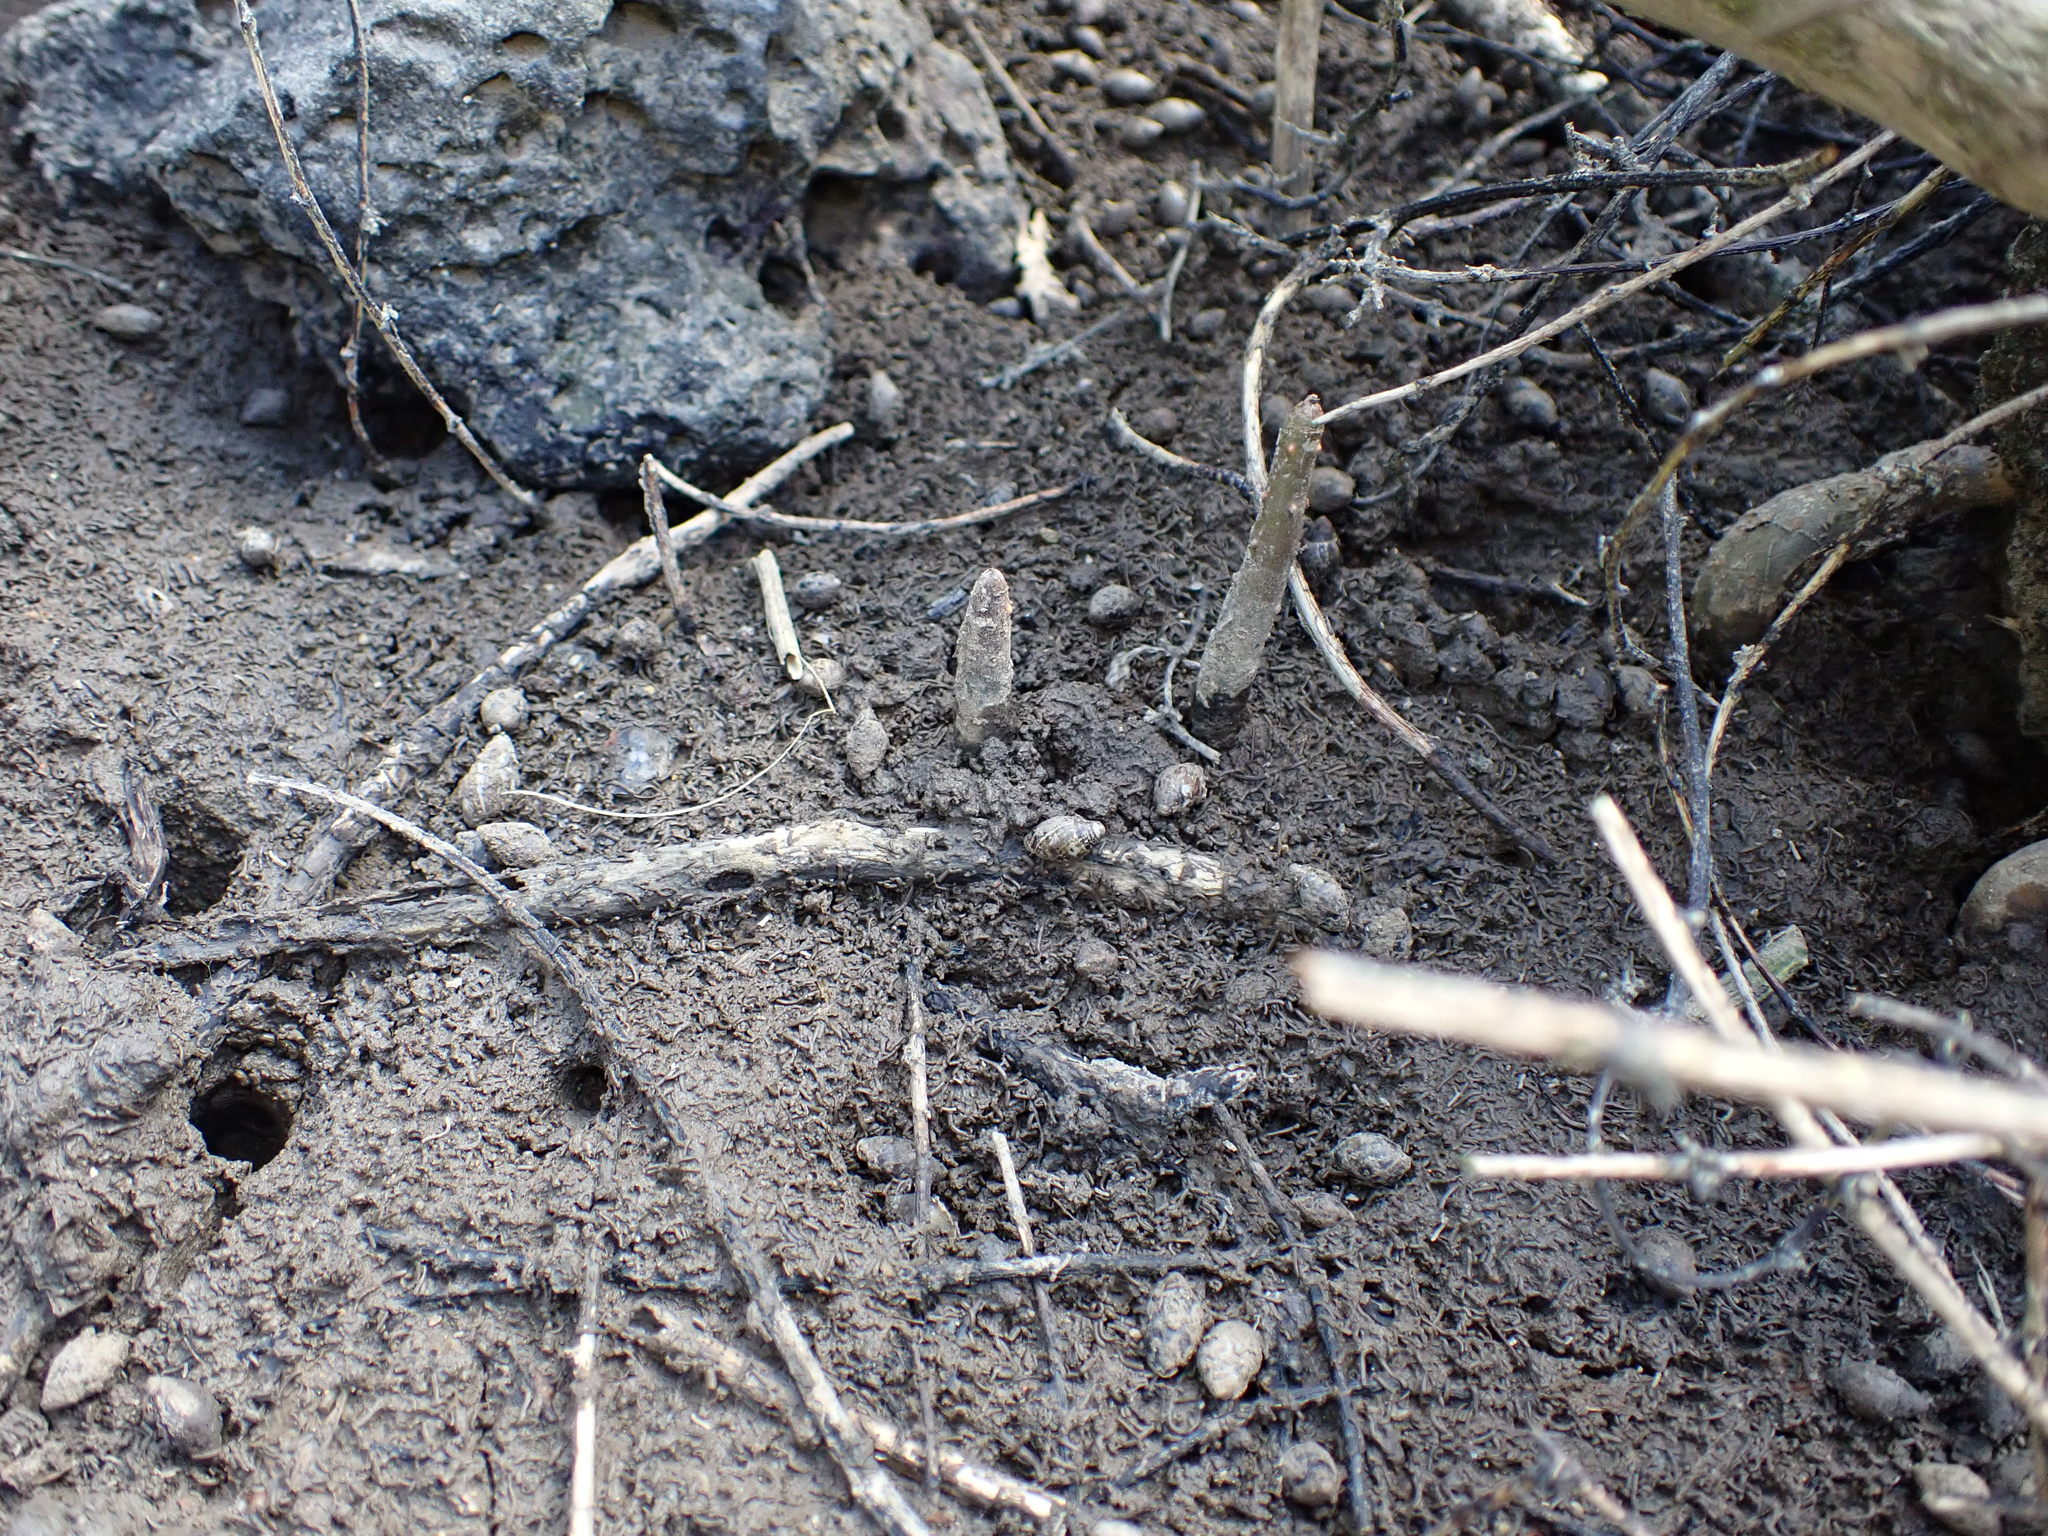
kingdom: Animalia
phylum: Mollusca
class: Gastropoda
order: Ellobiida
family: Ellobiidae
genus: Pleuroloba
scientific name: Pleuroloba costellaris
